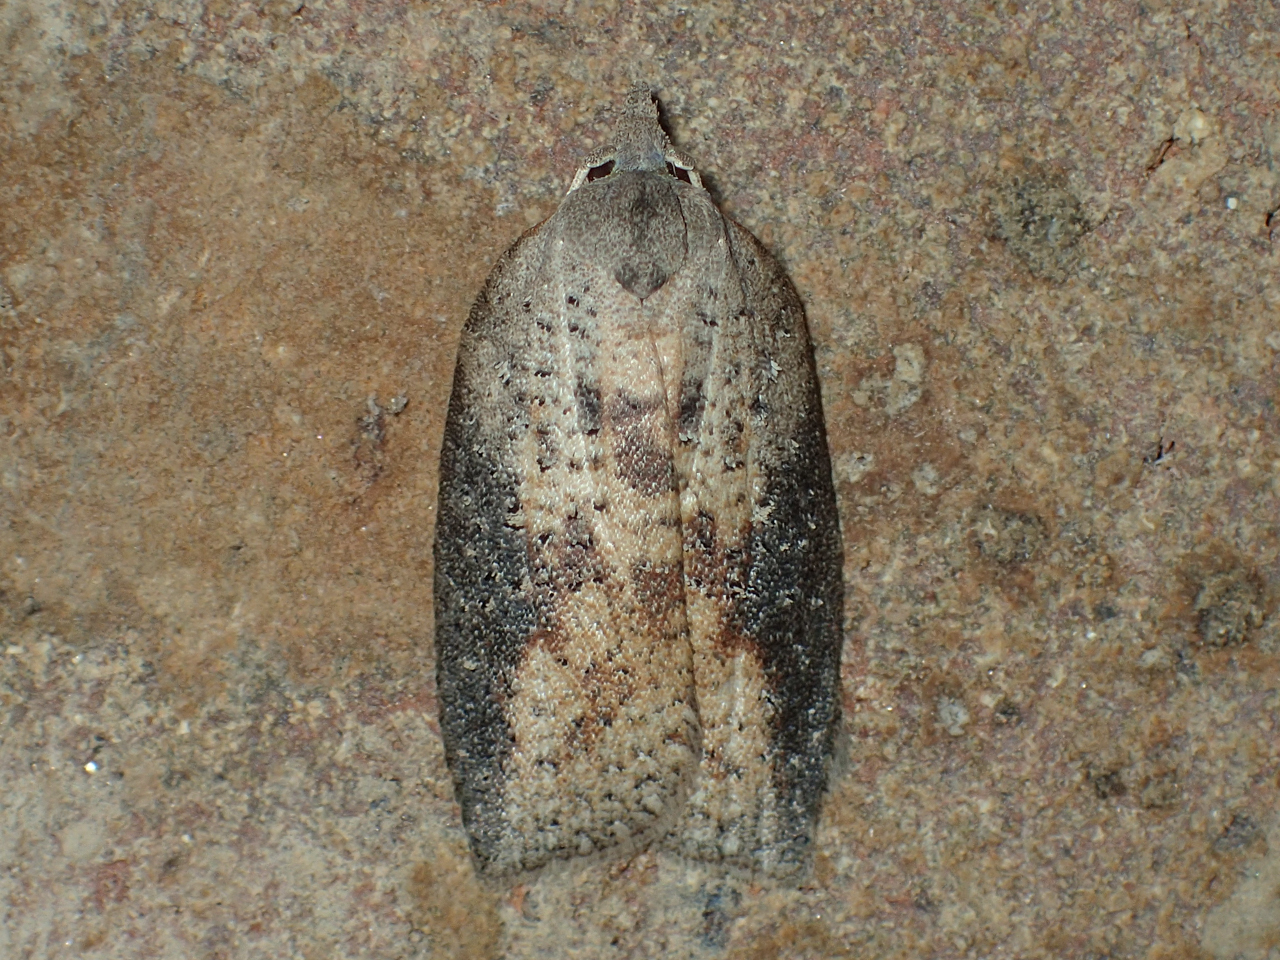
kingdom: Animalia
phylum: Arthropoda
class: Insecta
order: Lepidoptera
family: Tortricidae
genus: Amorbia
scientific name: Amorbia humerosana
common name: White-lined leafroller moth
